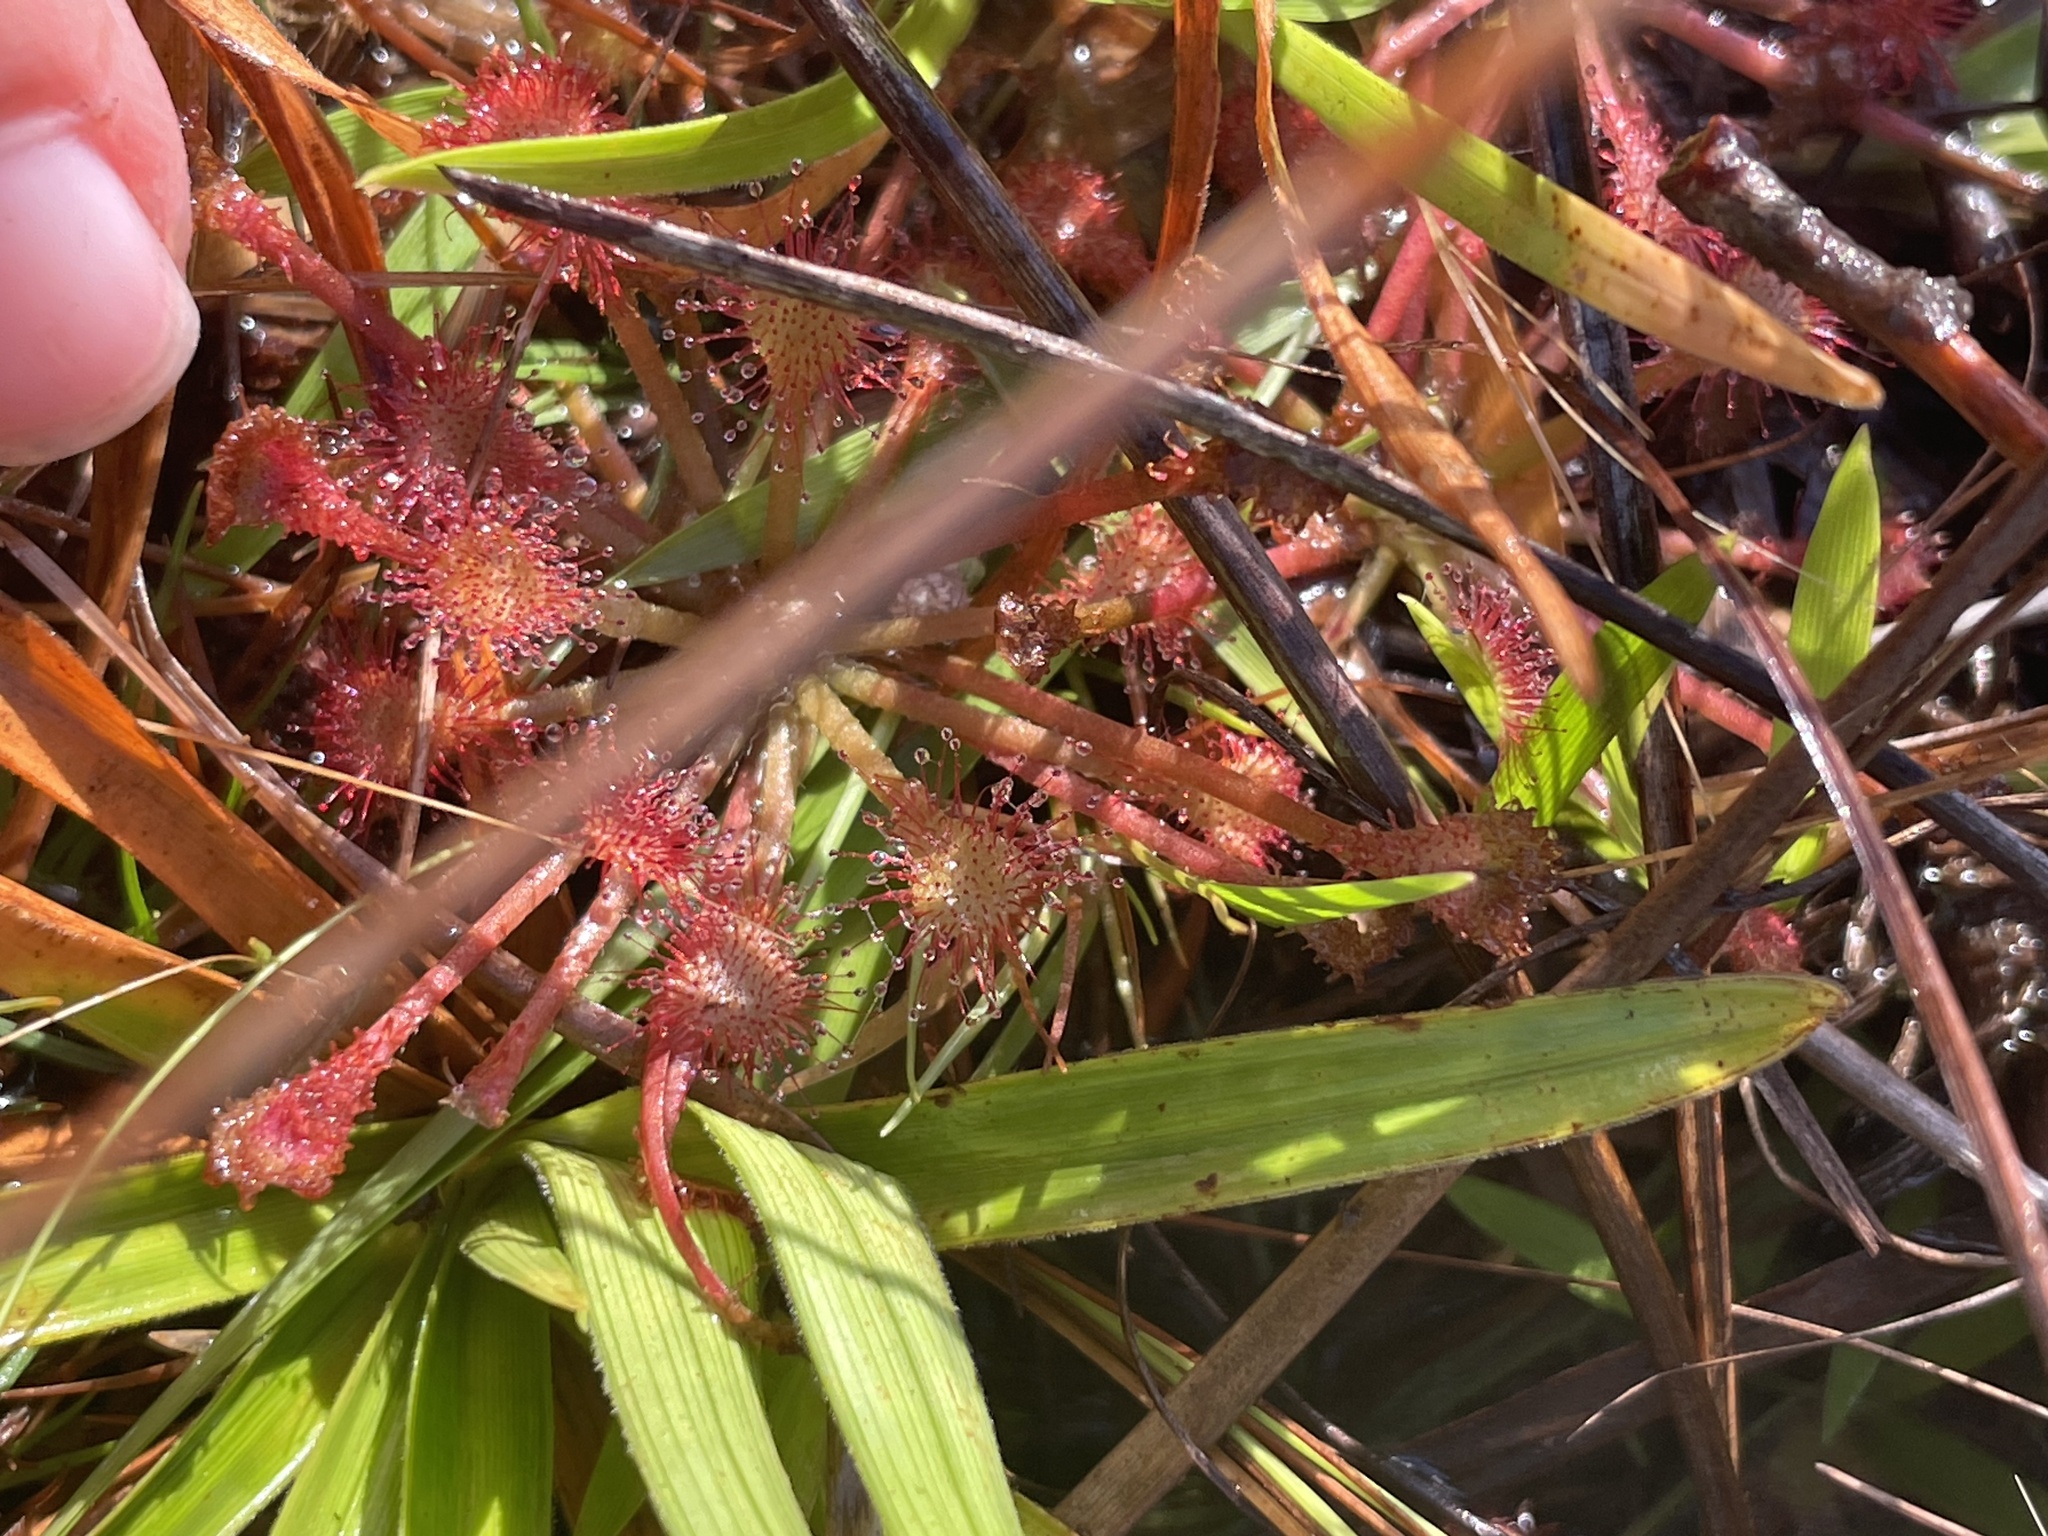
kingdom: Plantae
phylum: Tracheophyta
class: Magnoliopsida
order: Caryophyllales
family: Droseraceae
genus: Drosera
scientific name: Drosera capillaris
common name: Pink sundew
